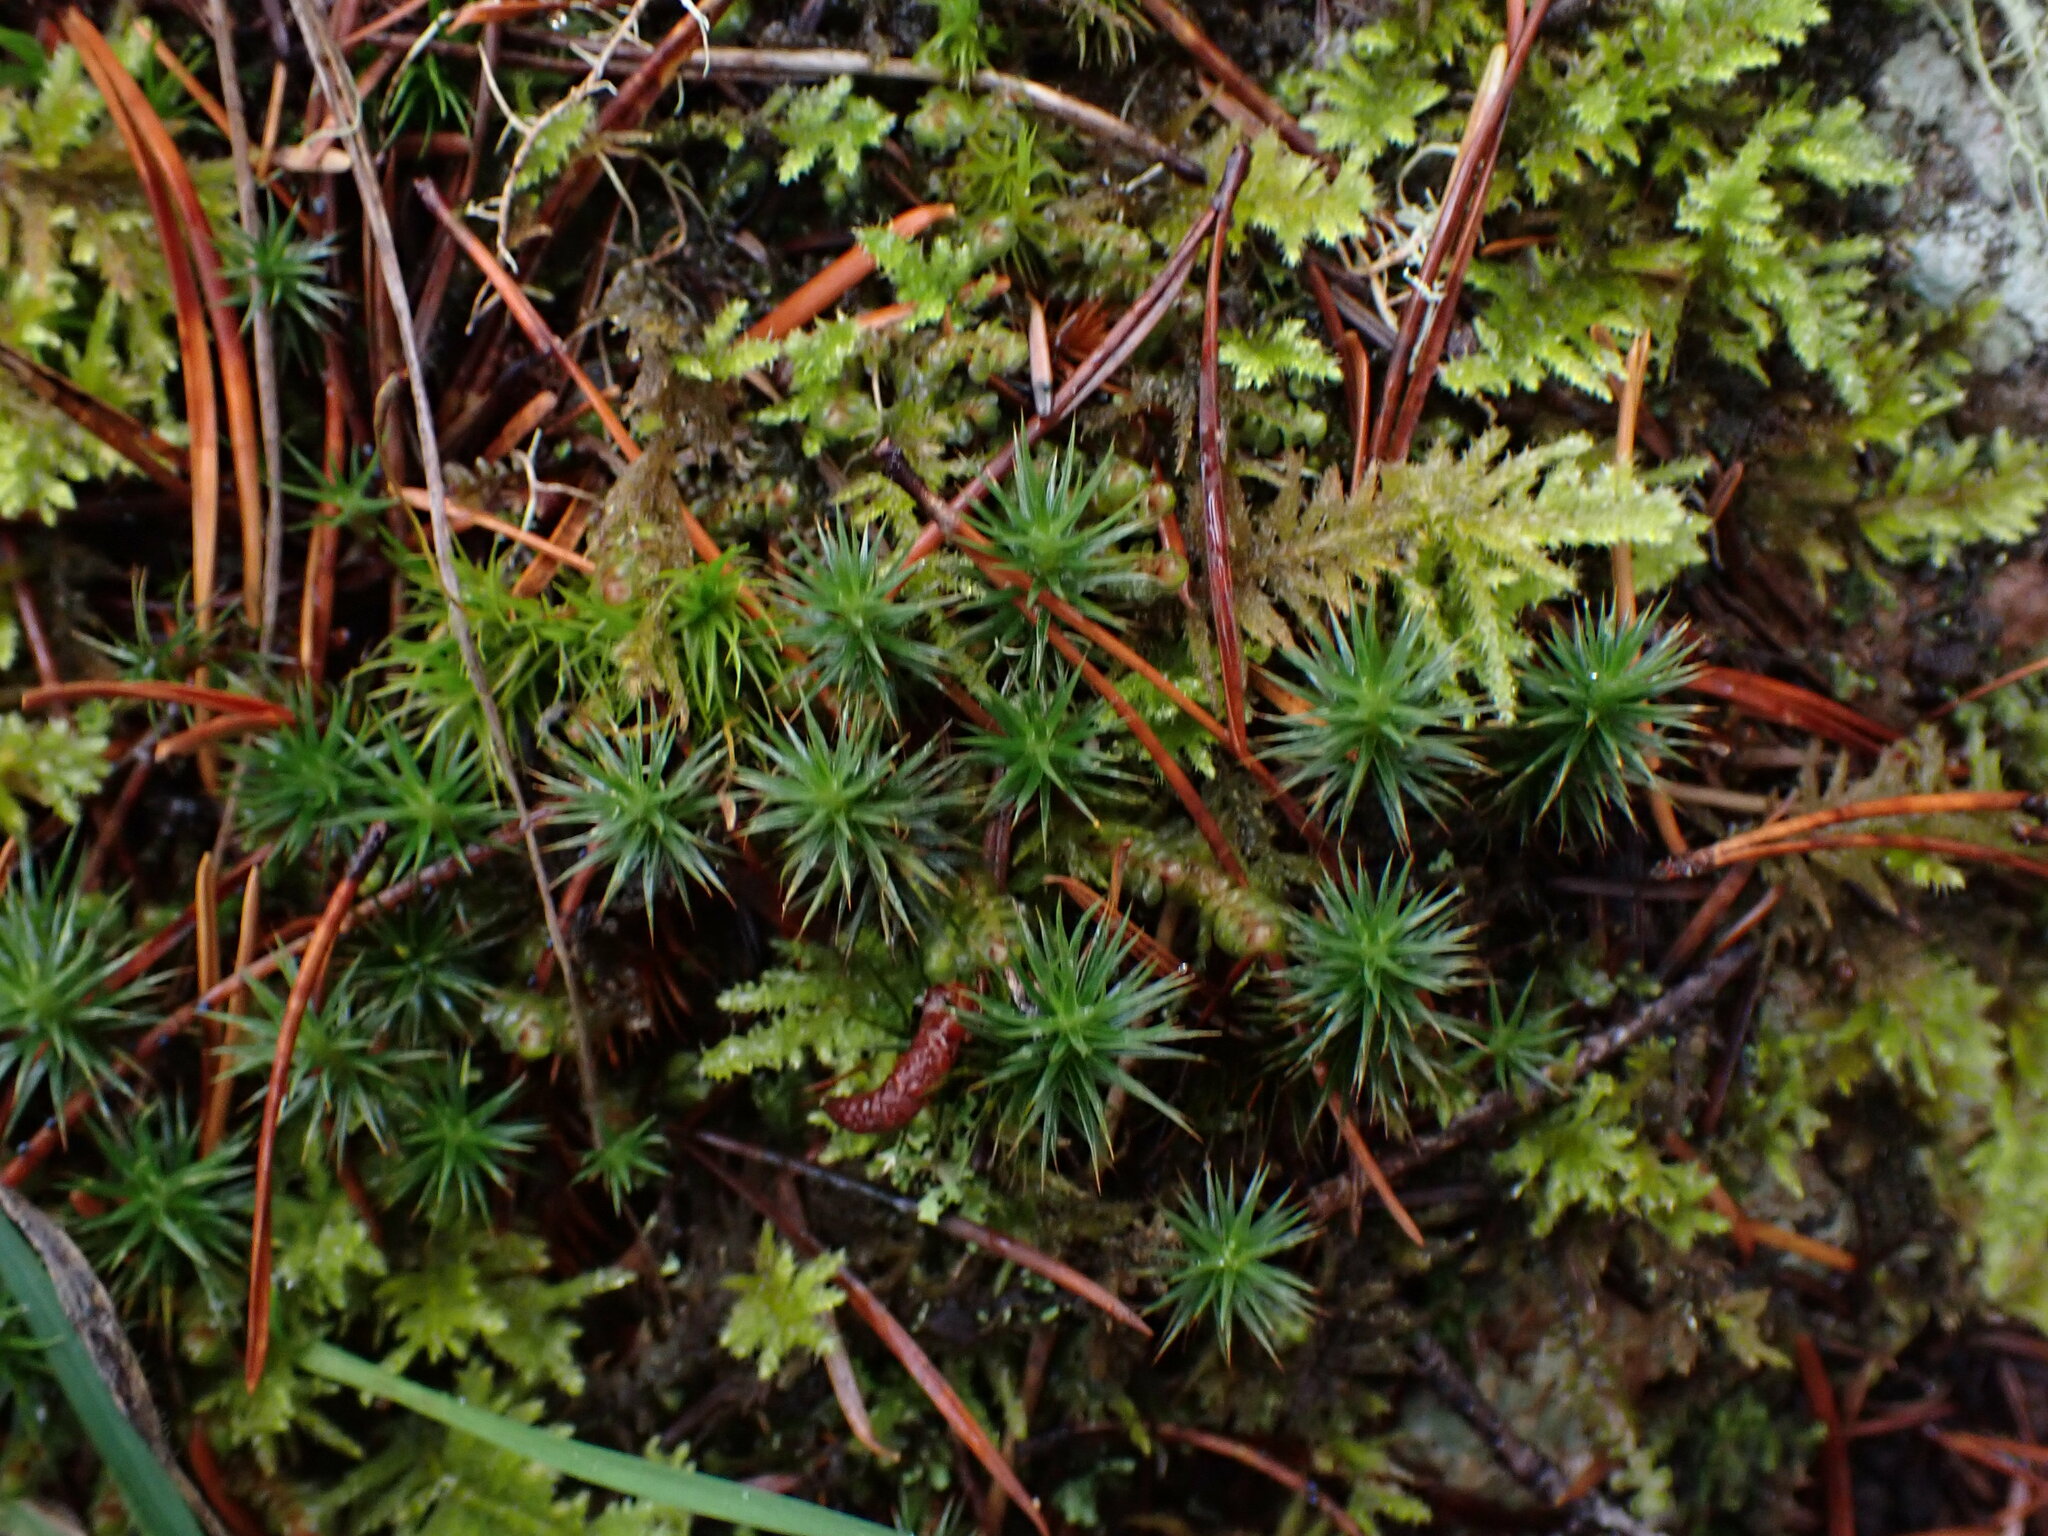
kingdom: Plantae
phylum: Bryophyta
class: Polytrichopsida
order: Polytrichales
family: Polytrichaceae
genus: Polytrichum
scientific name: Polytrichum juniperinum
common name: Juniper haircap moss
